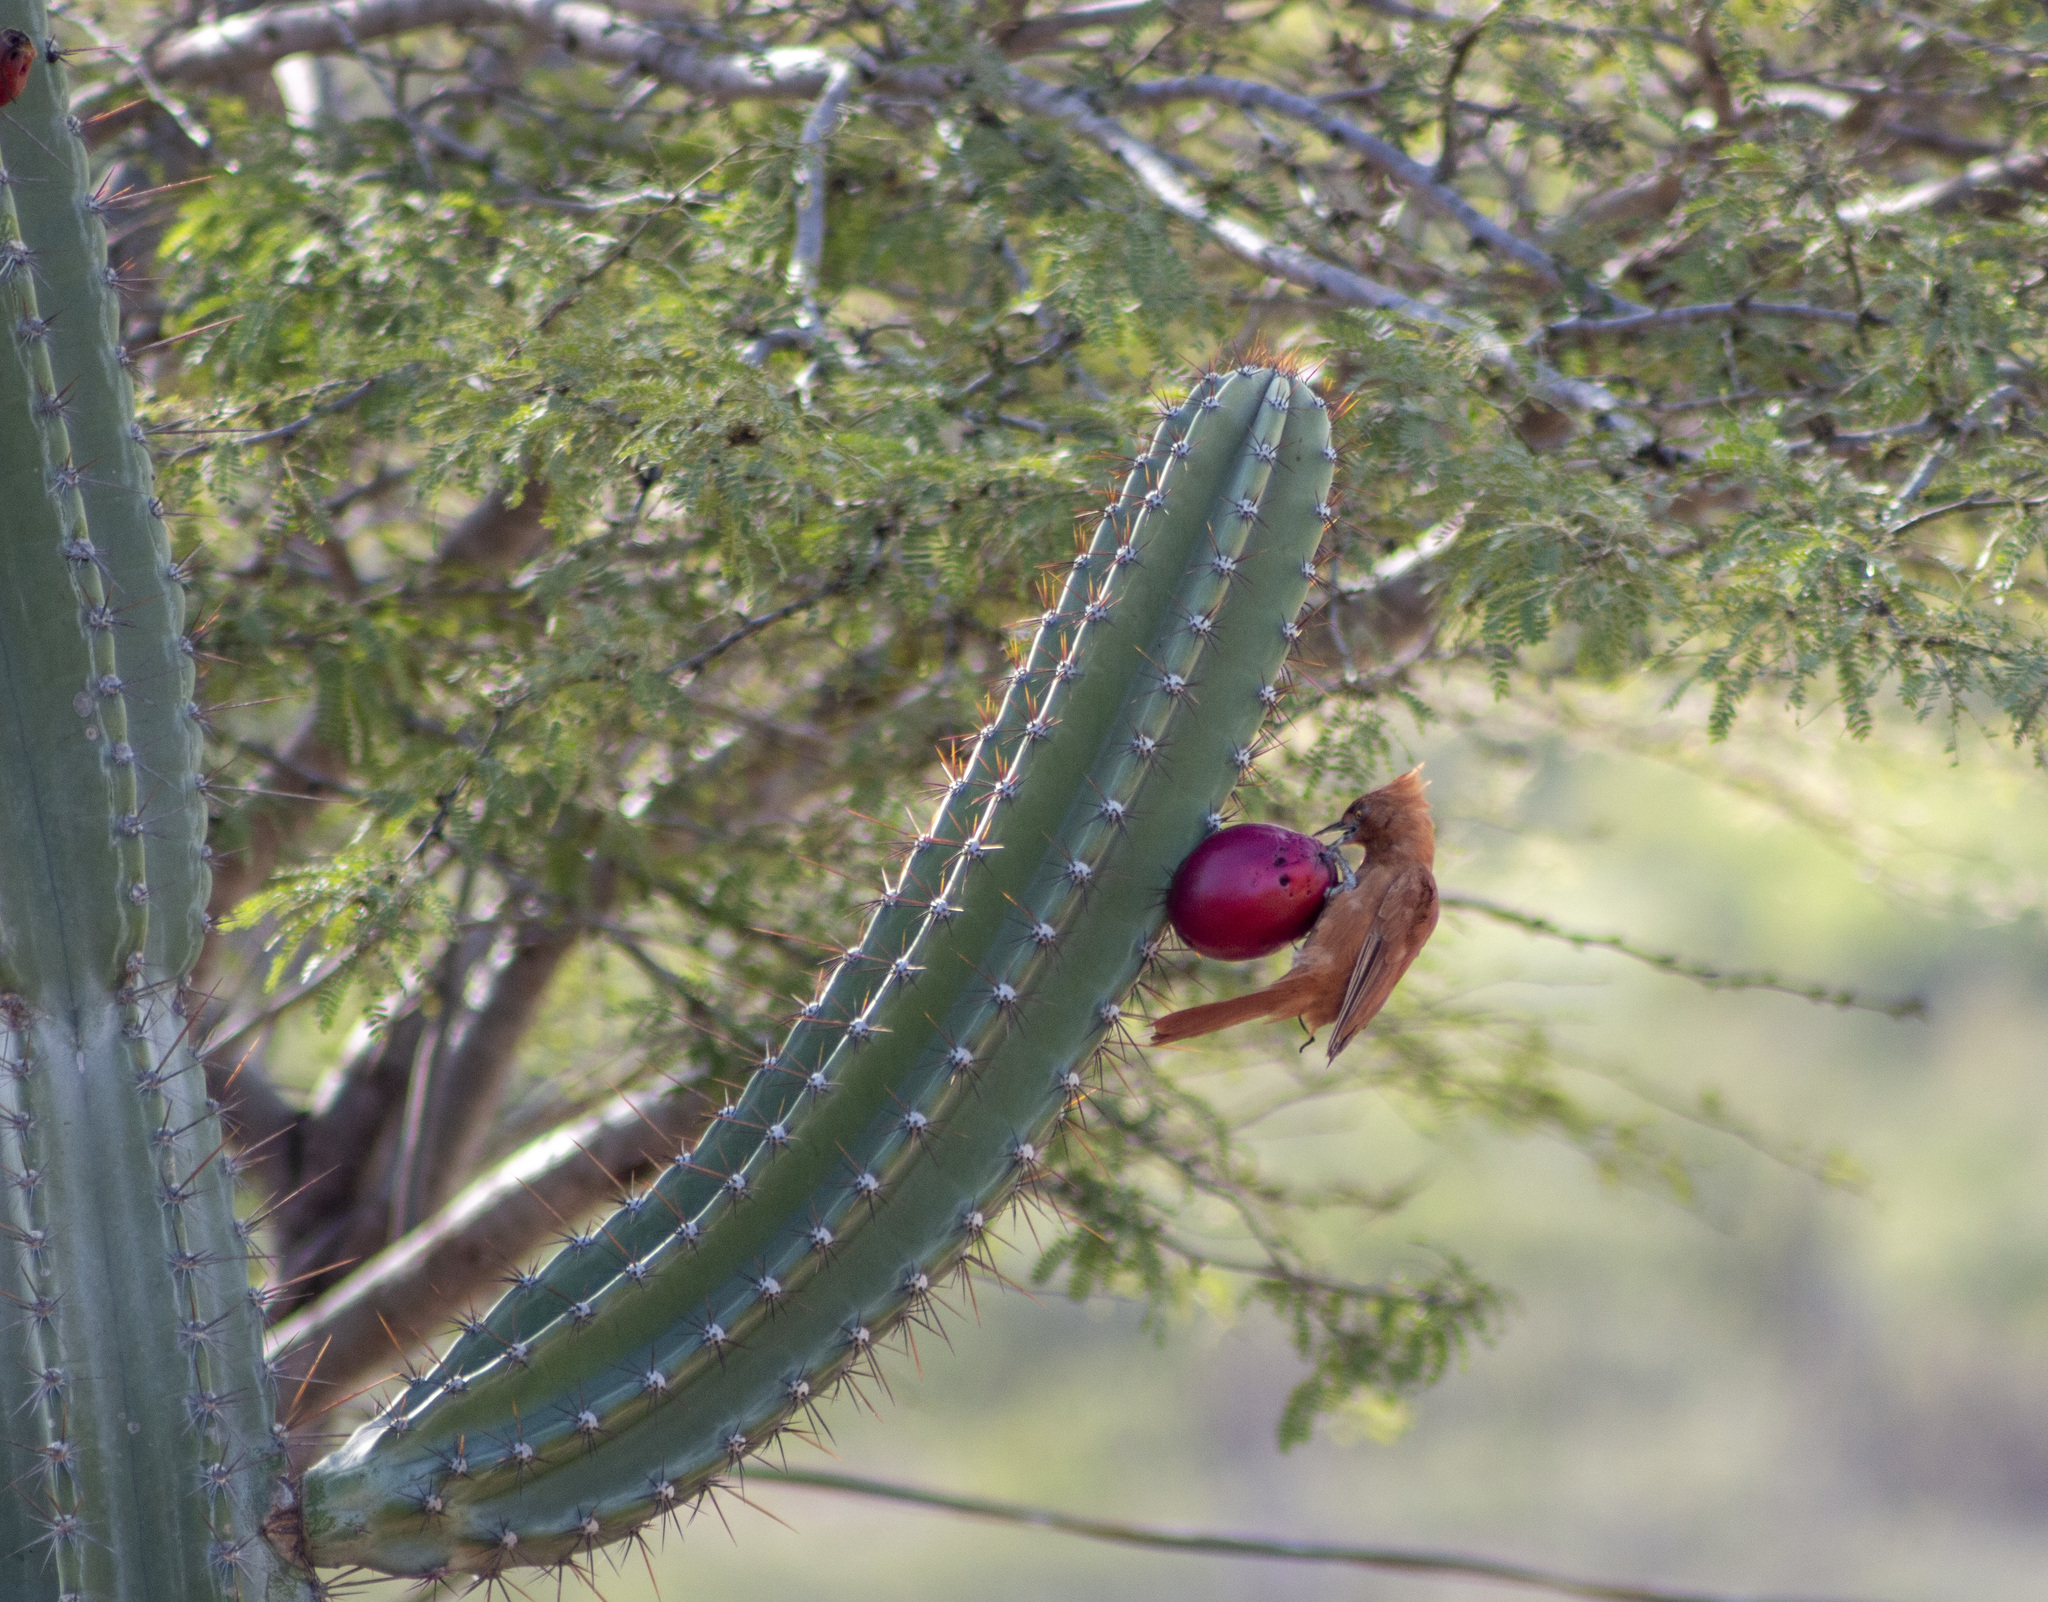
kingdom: Animalia
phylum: Chordata
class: Aves
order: Passeriformes
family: Furnariidae
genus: Pseudoseisura
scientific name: Pseudoseisura cristata
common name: Caatinga cacholote
